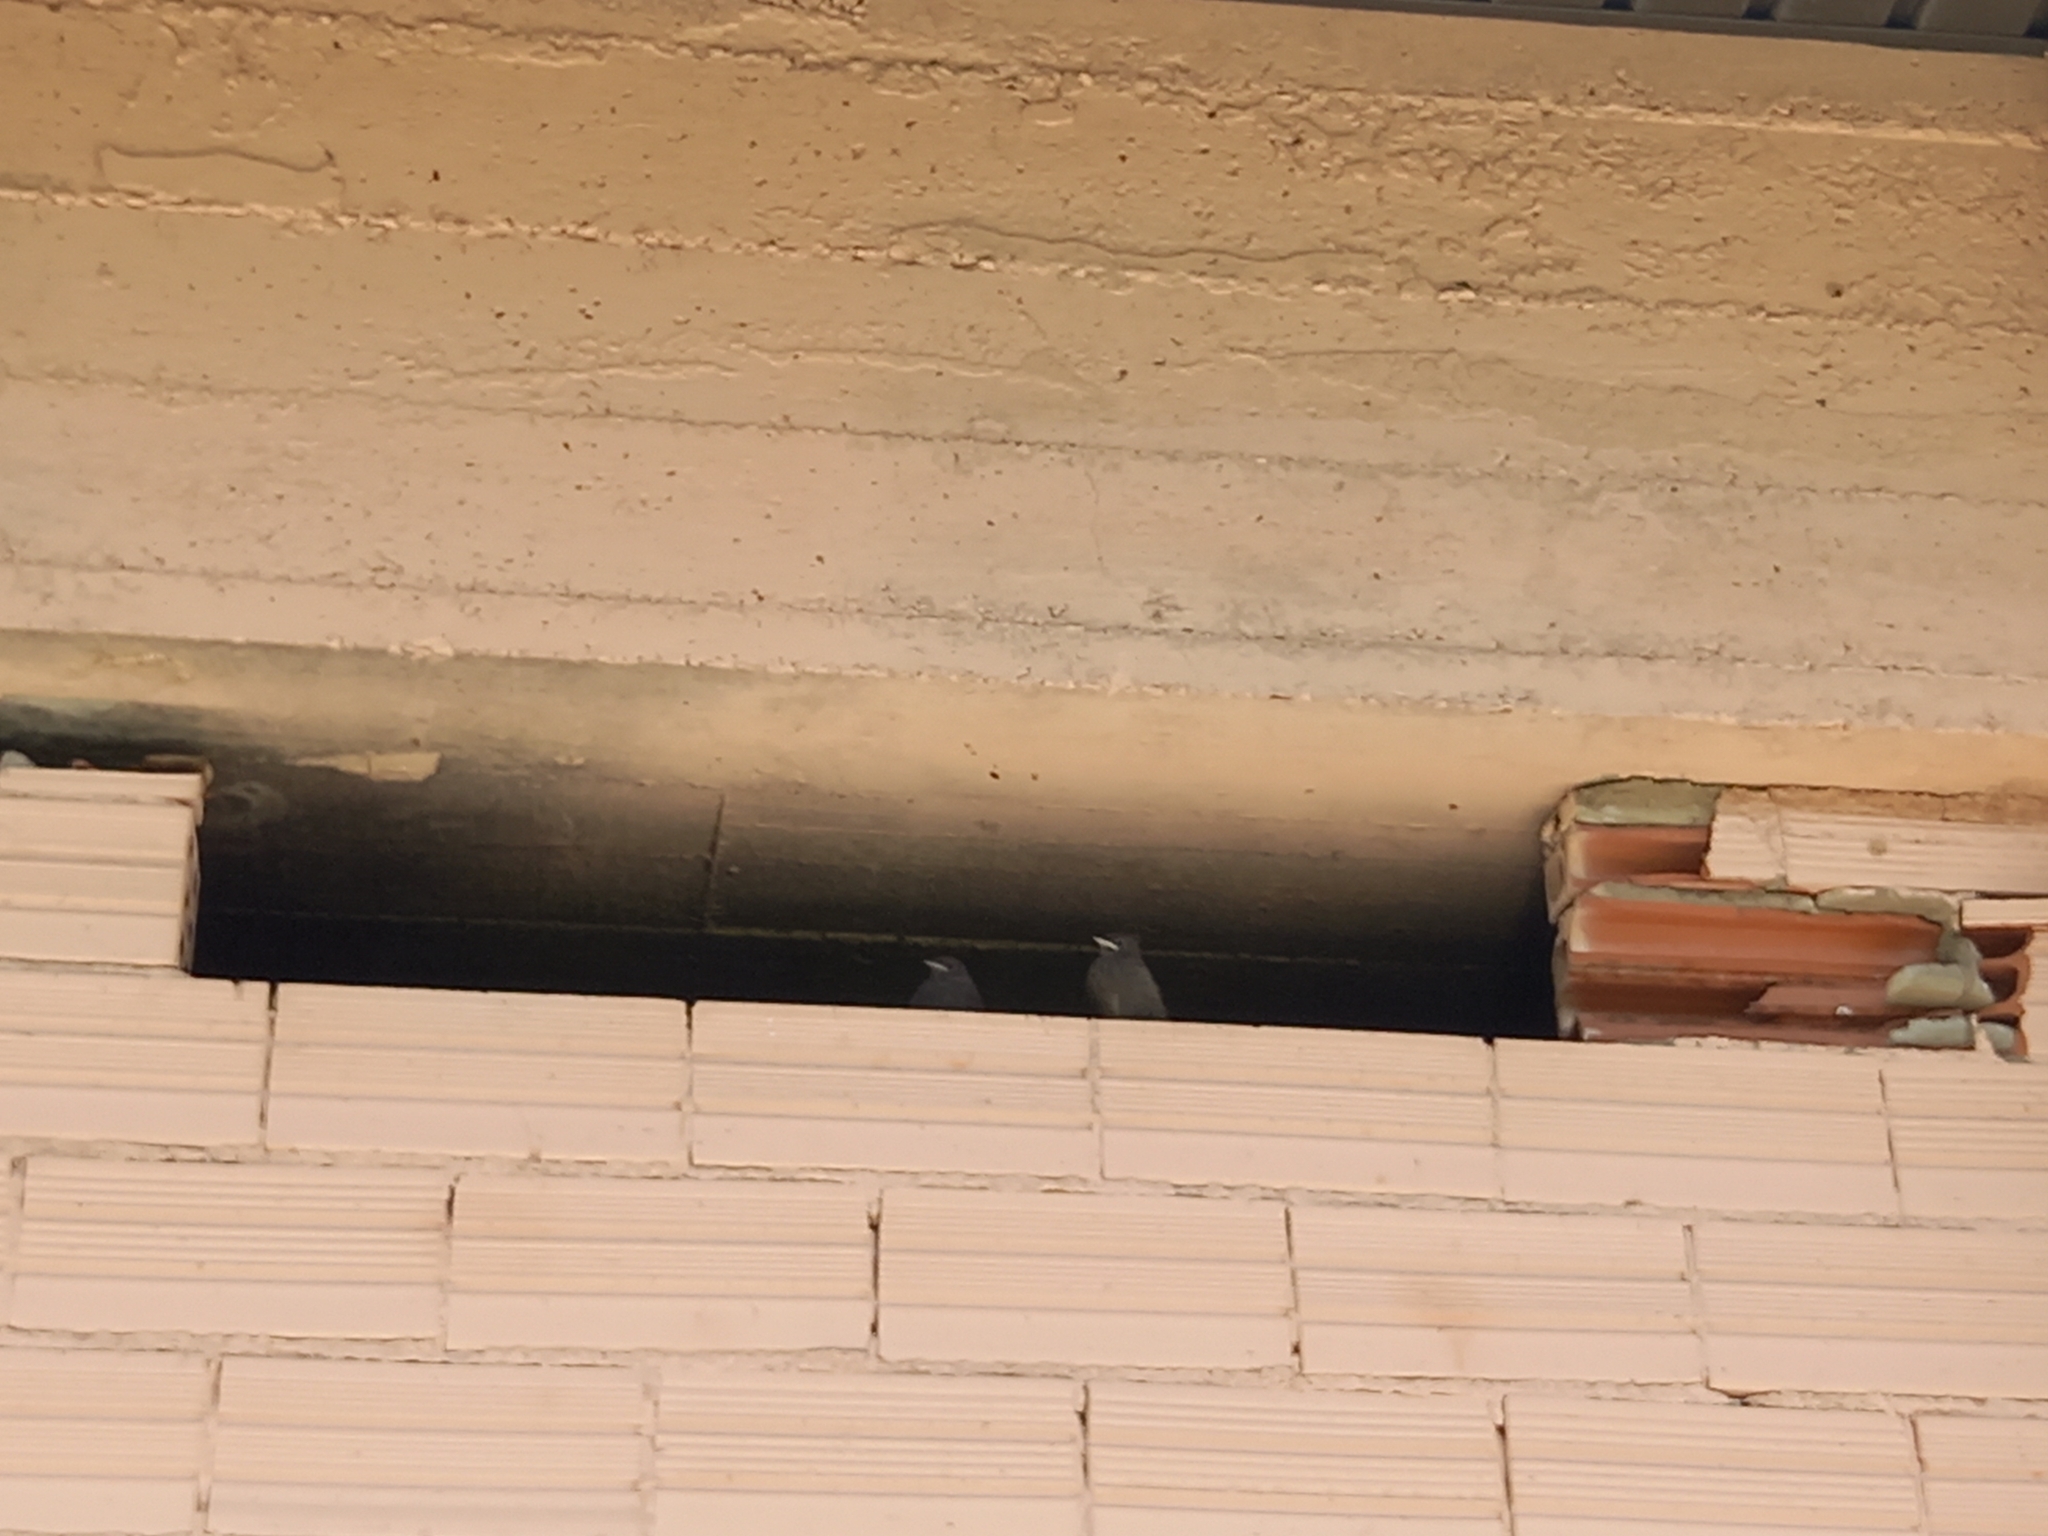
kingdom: Animalia
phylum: Chordata
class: Aves
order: Passeriformes
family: Muscicapidae
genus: Phoenicurus
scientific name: Phoenicurus ochruros
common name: Black redstart
